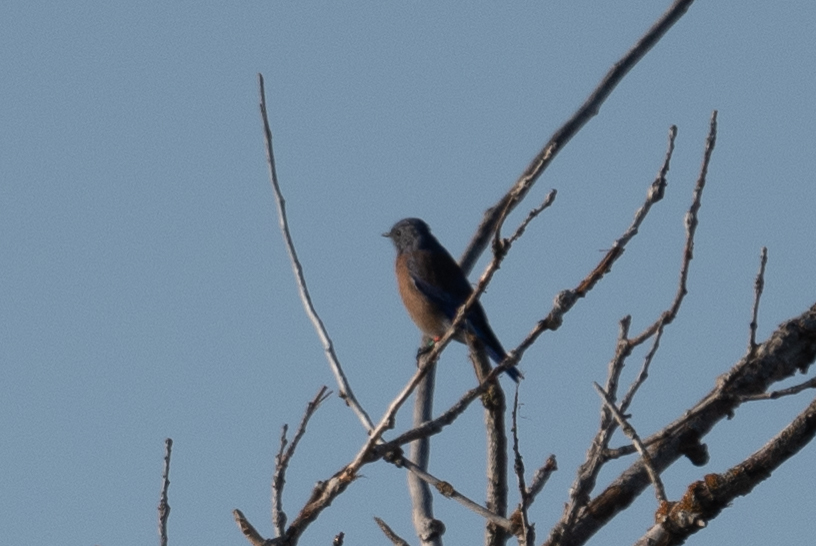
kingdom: Animalia
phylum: Chordata
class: Aves
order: Passeriformes
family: Turdidae
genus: Sialia
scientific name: Sialia mexicana
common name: Western bluebird
